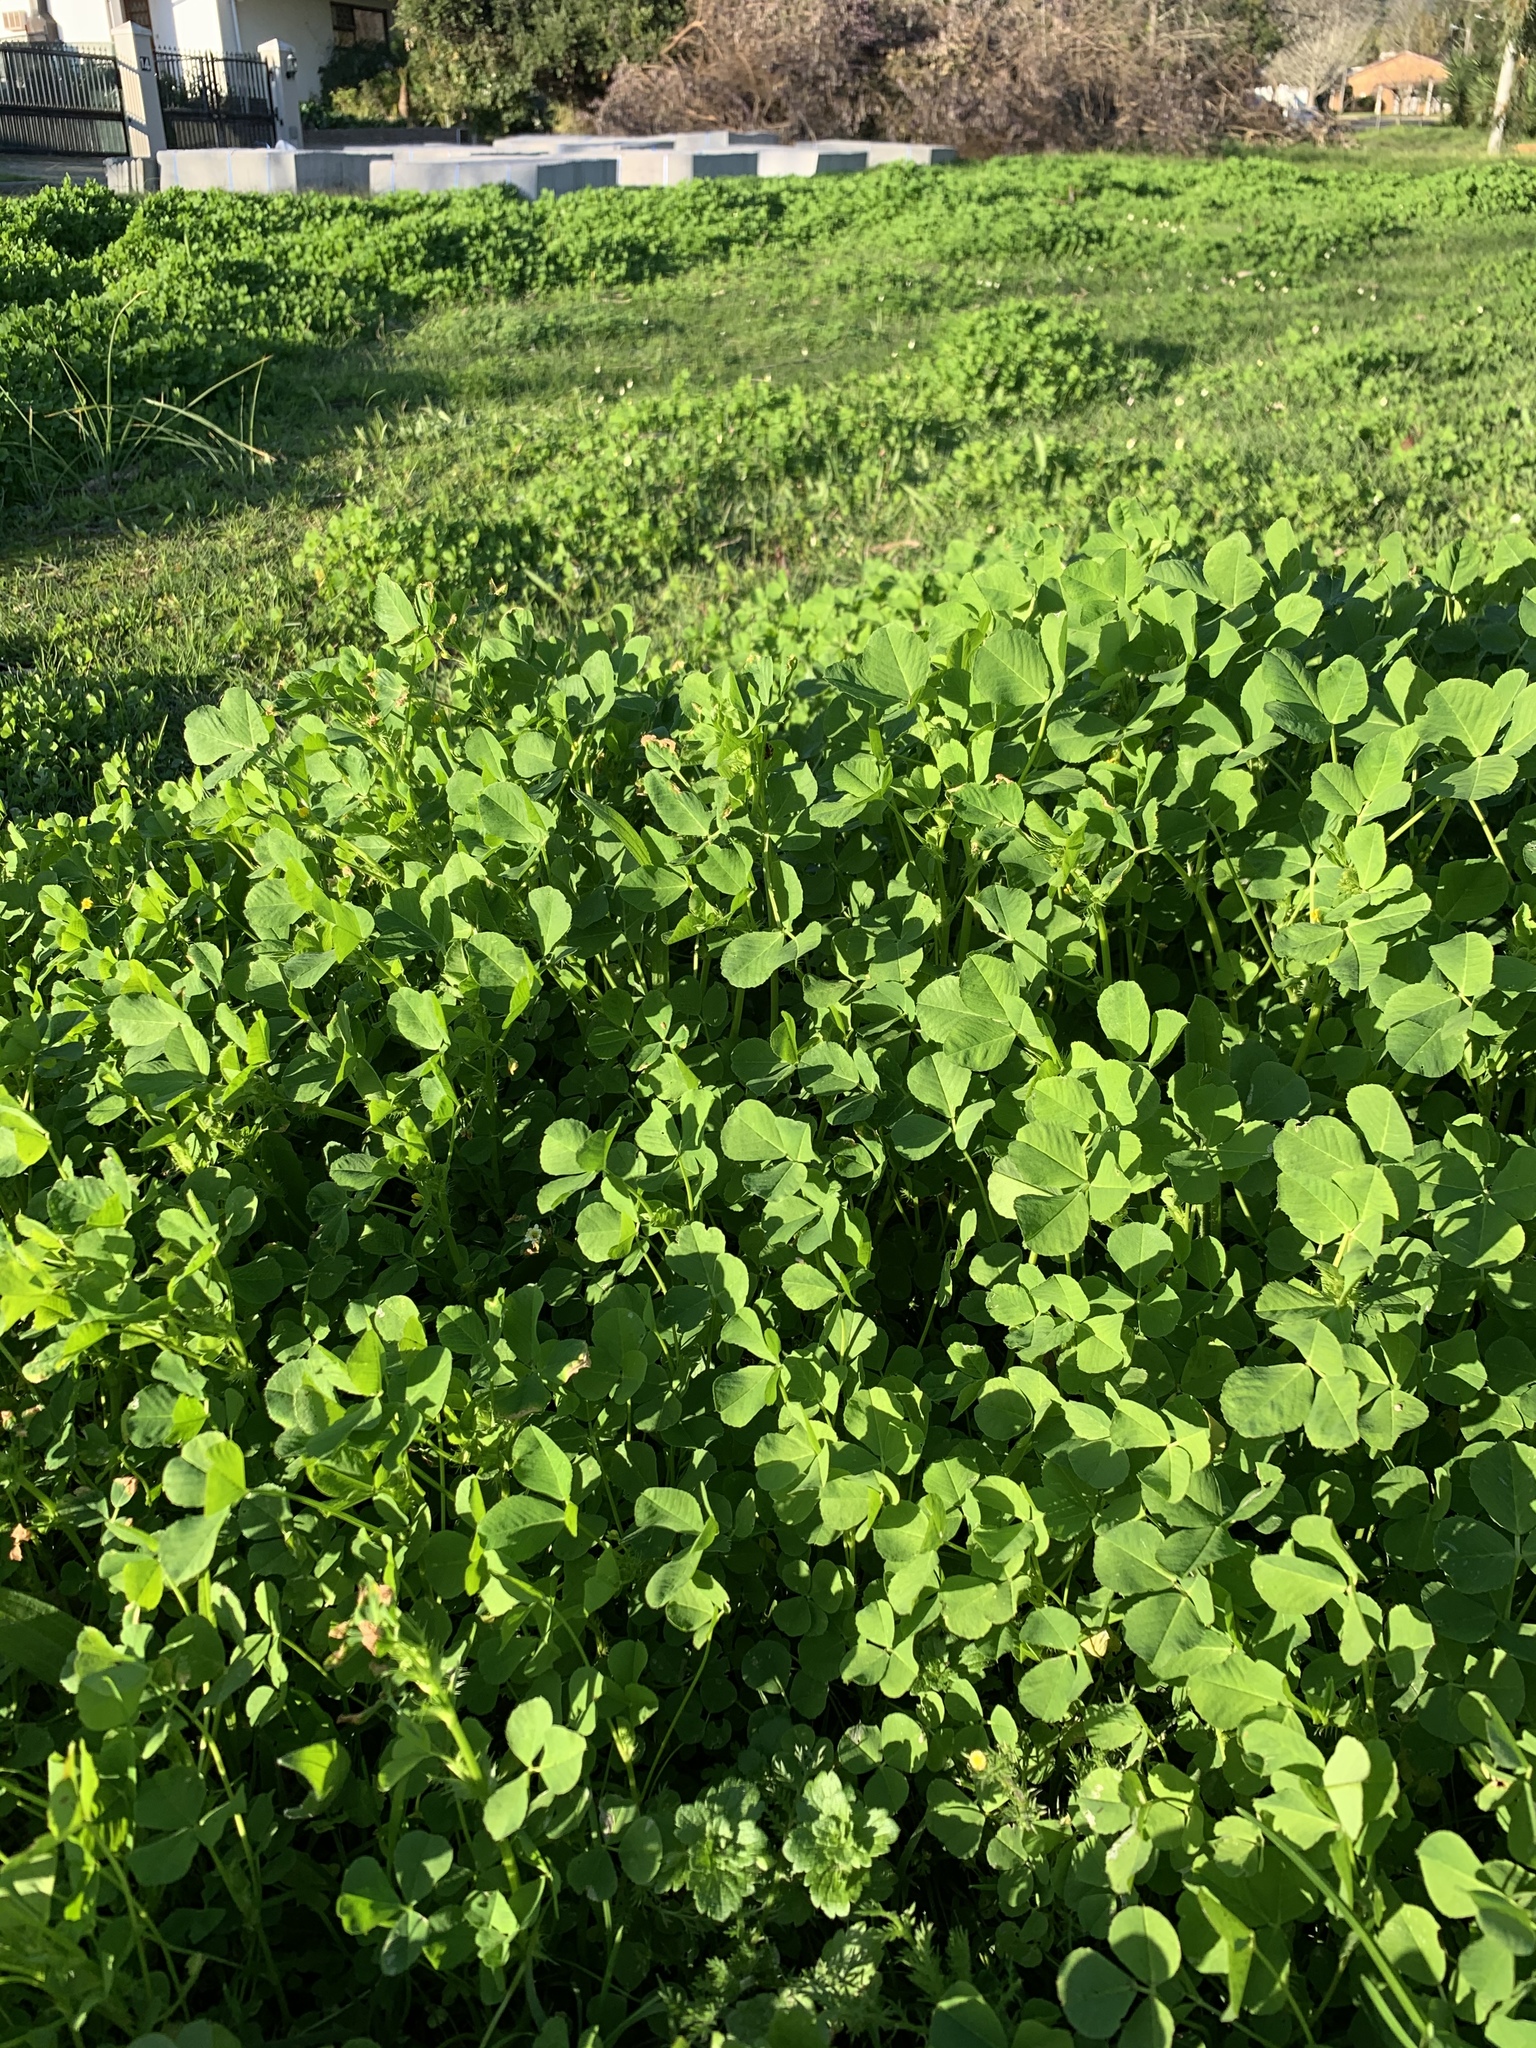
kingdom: Plantae
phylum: Tracheophyta
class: Magnoliopsida
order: Fabales
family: Fabaceae
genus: Medicago
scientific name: Medicago polymorpha
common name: Burclover
